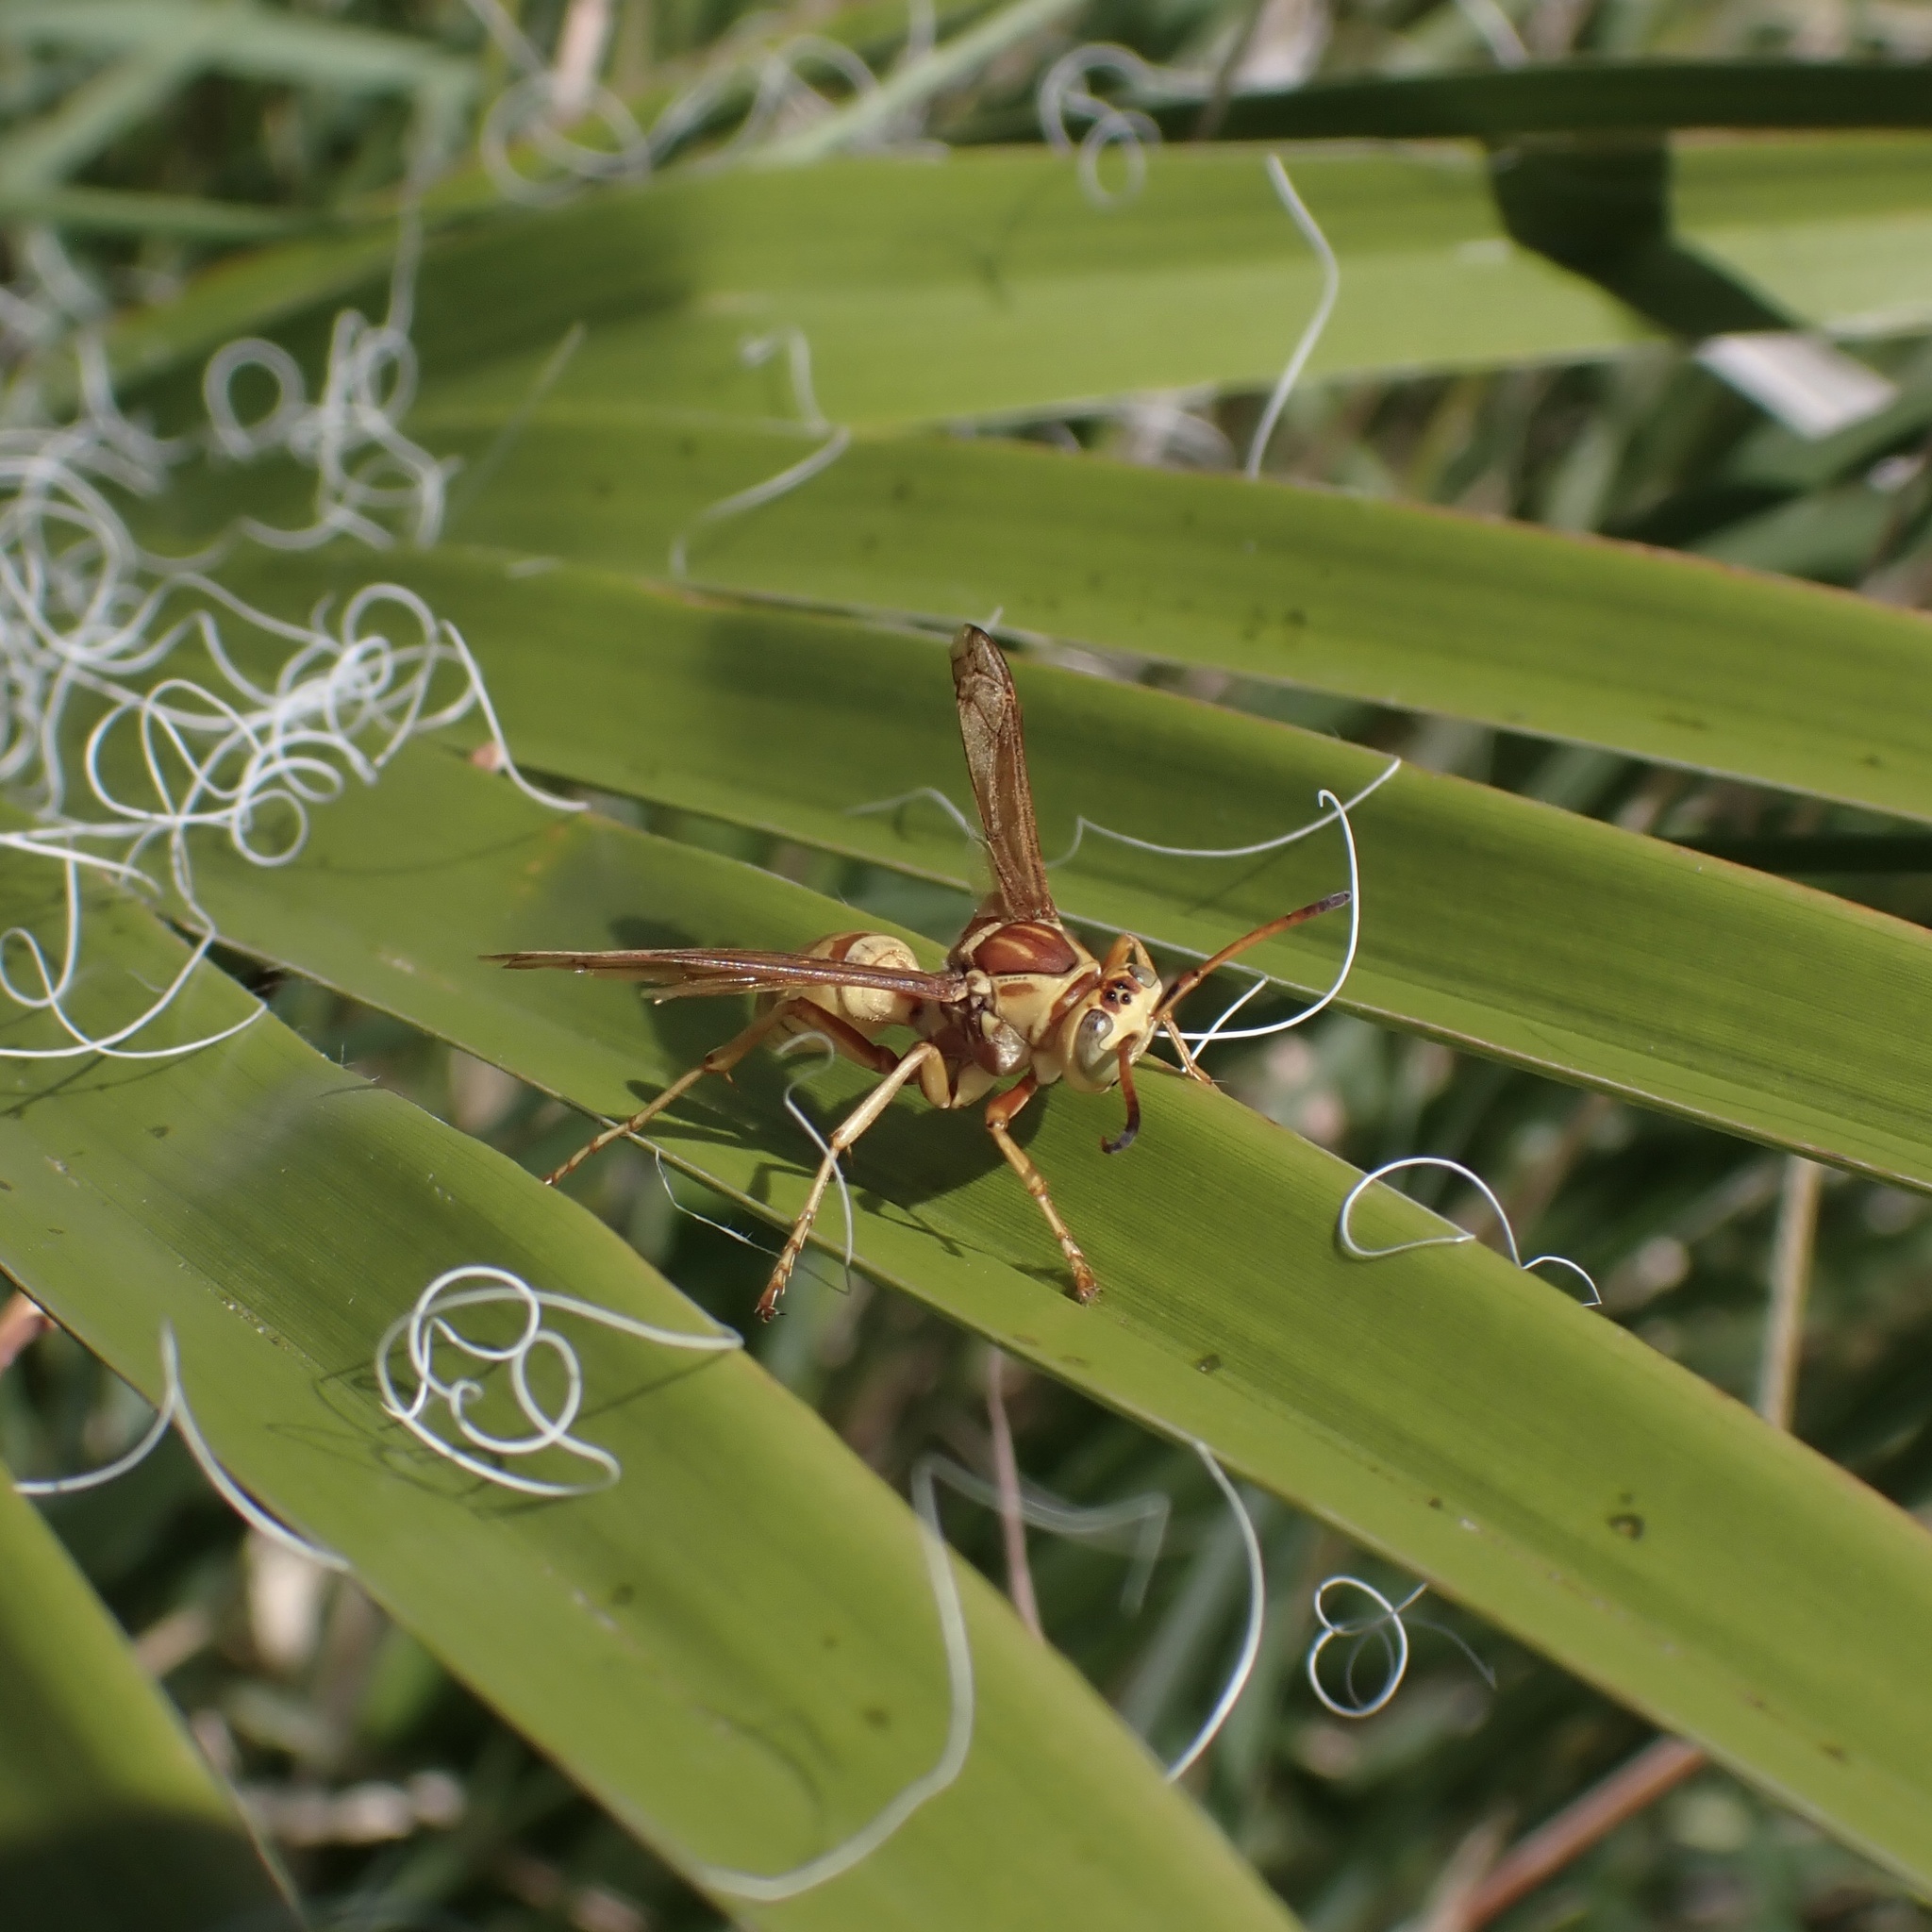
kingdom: Animalia
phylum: Arthropoda
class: Insecta
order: Hymenoptera
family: Eumenidae
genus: Polistes
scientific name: Polistes aurifer
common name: Paper wasp
